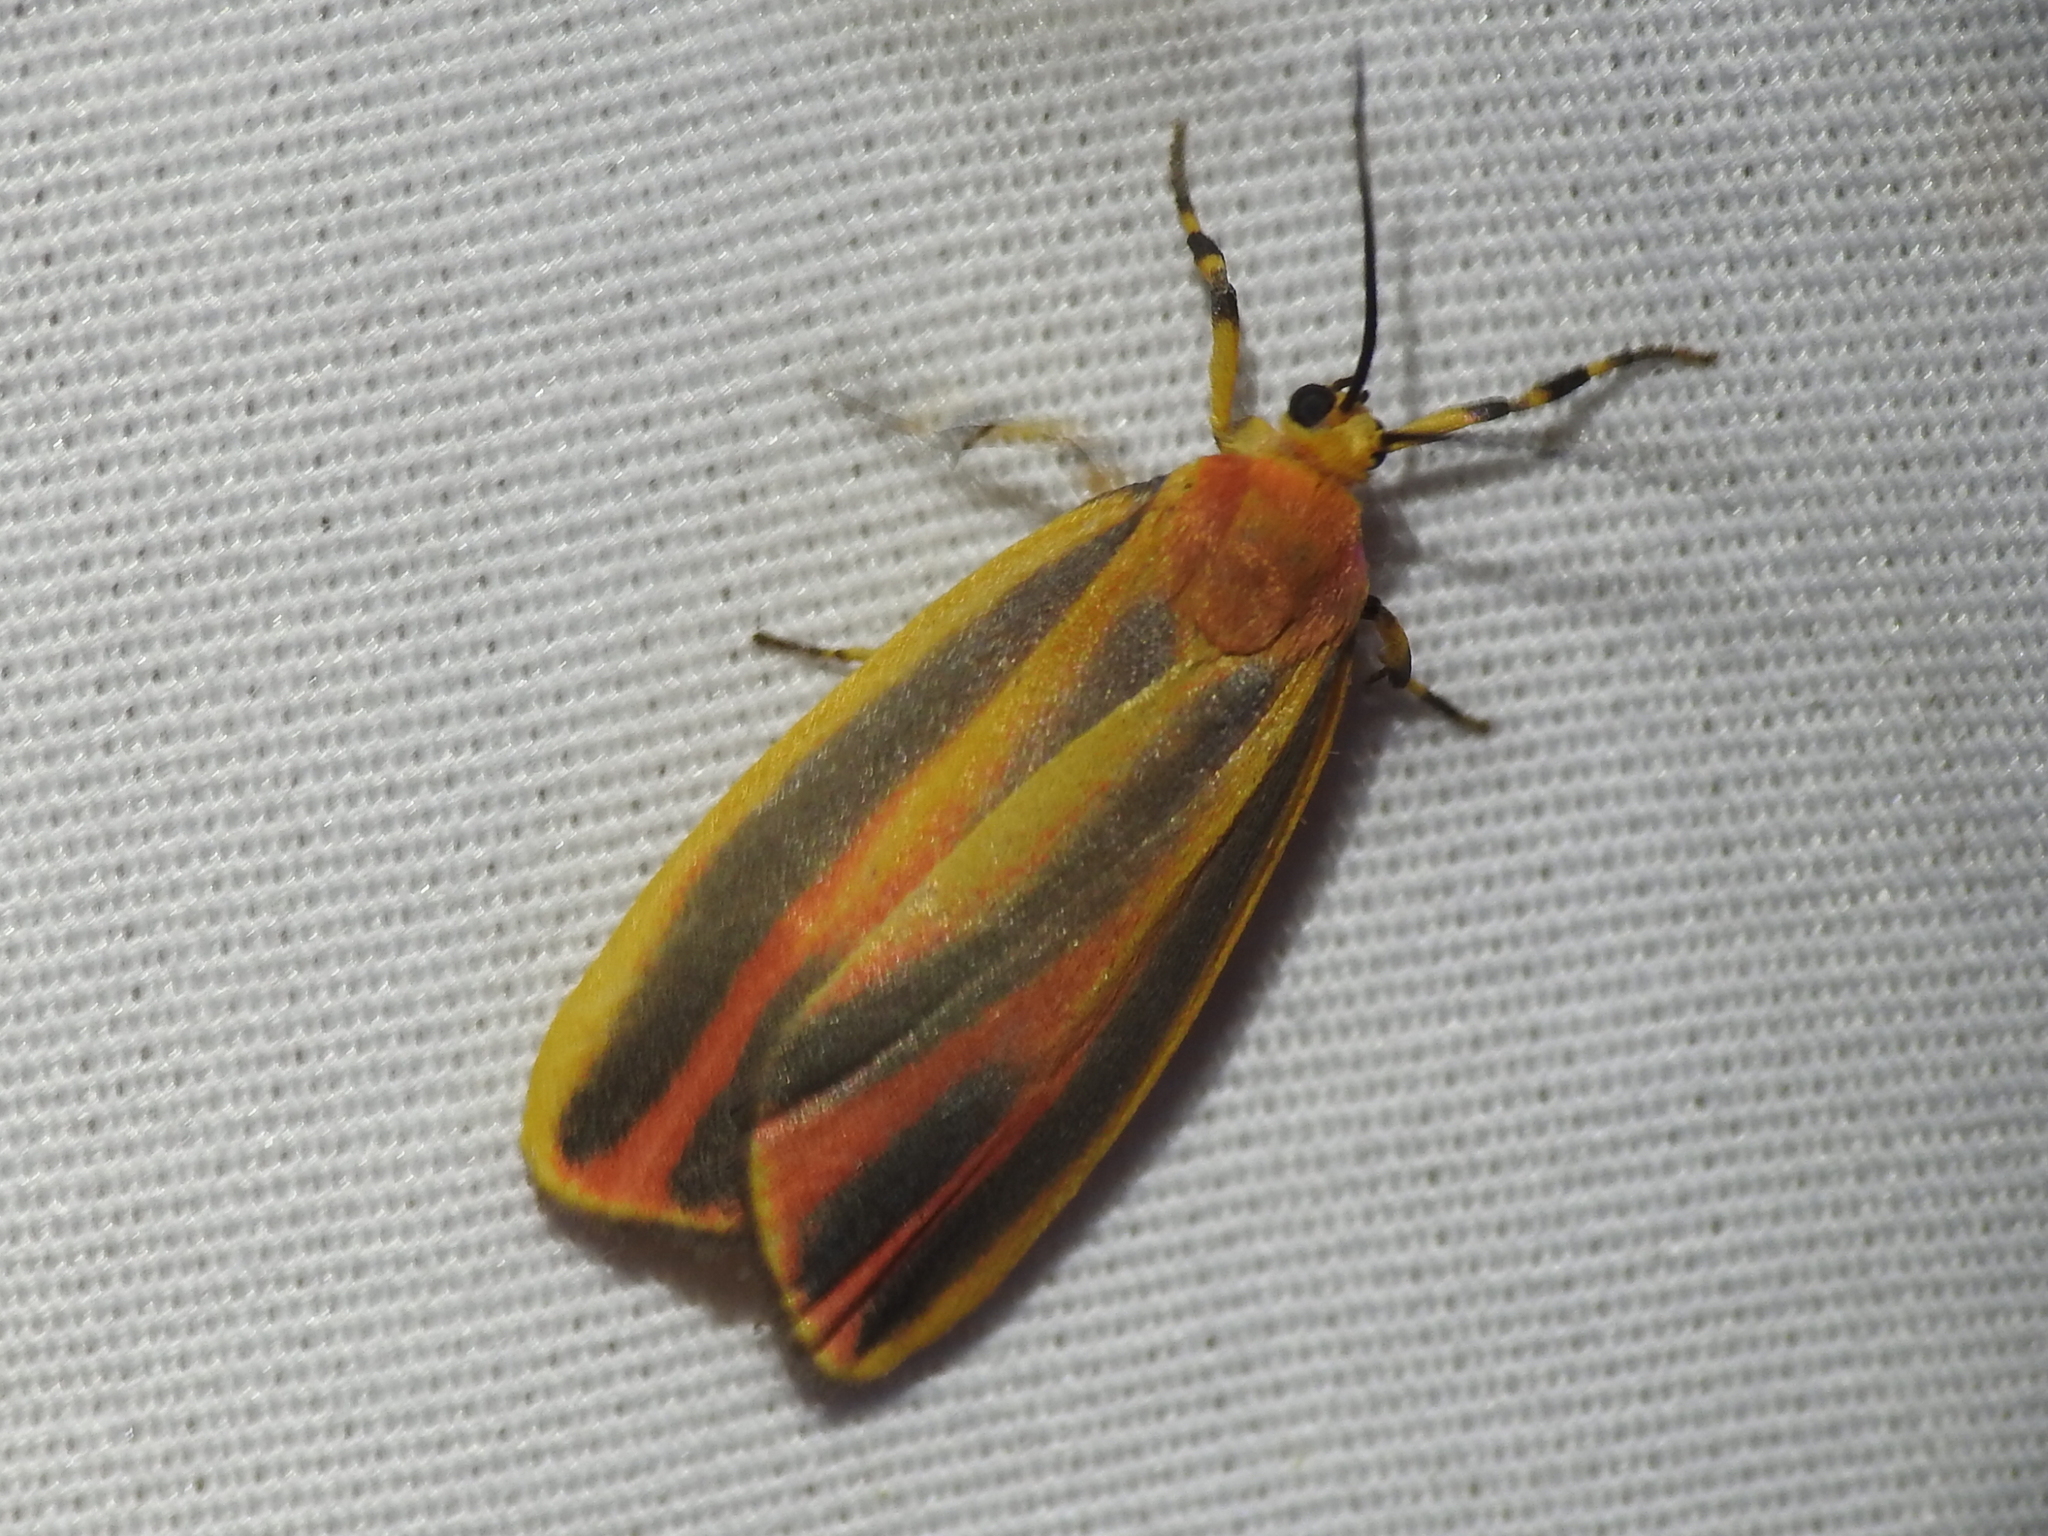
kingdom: Animalia
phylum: Arthropoda
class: Insecta
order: Lepidoptera
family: Erebidae
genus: Hypoprepia
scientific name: Hypoprepia fucosa
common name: Painted lichen moth
